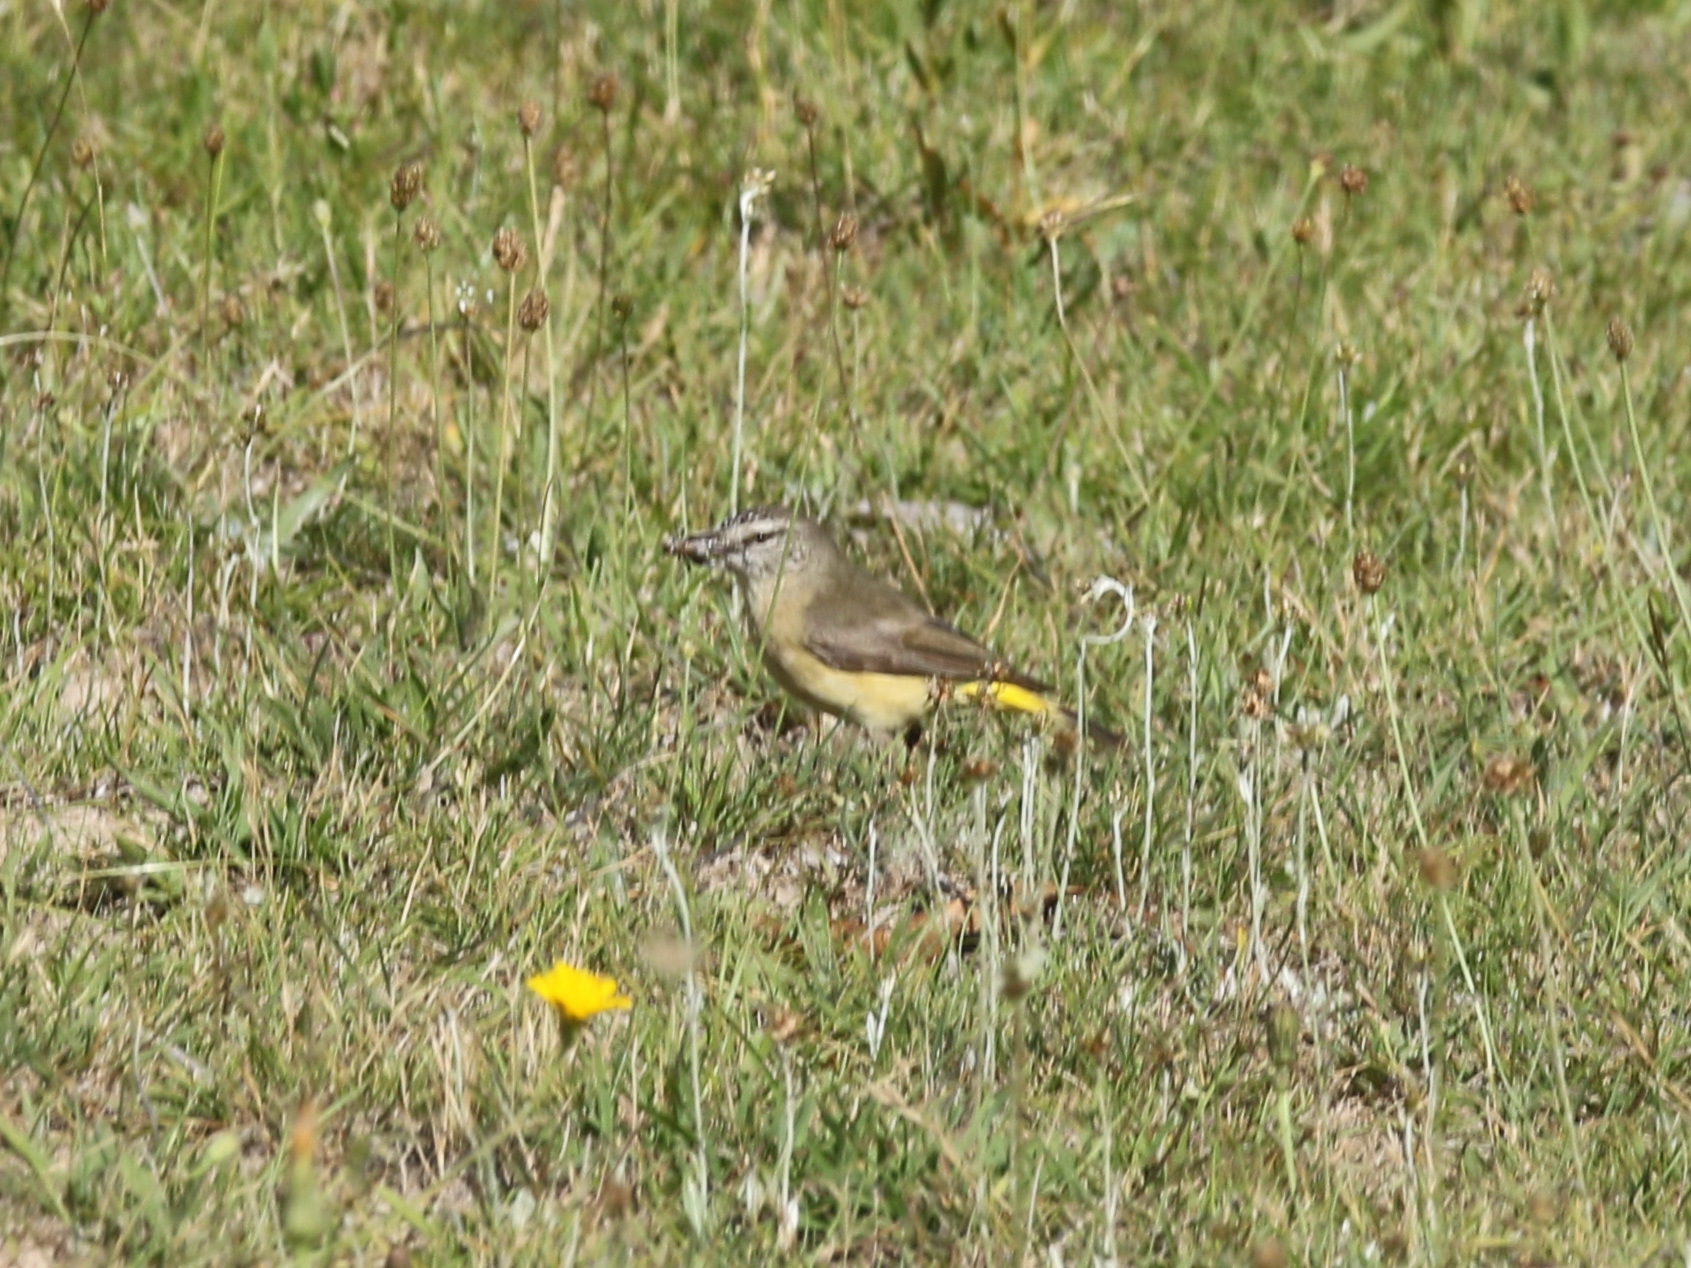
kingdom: Animalia
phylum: Chordata
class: Aves
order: Passeriformes
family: Acanthizidae
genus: Acanthiza
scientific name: Acanthiza chrysorrhoa
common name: Yellow-rumped thornbill
